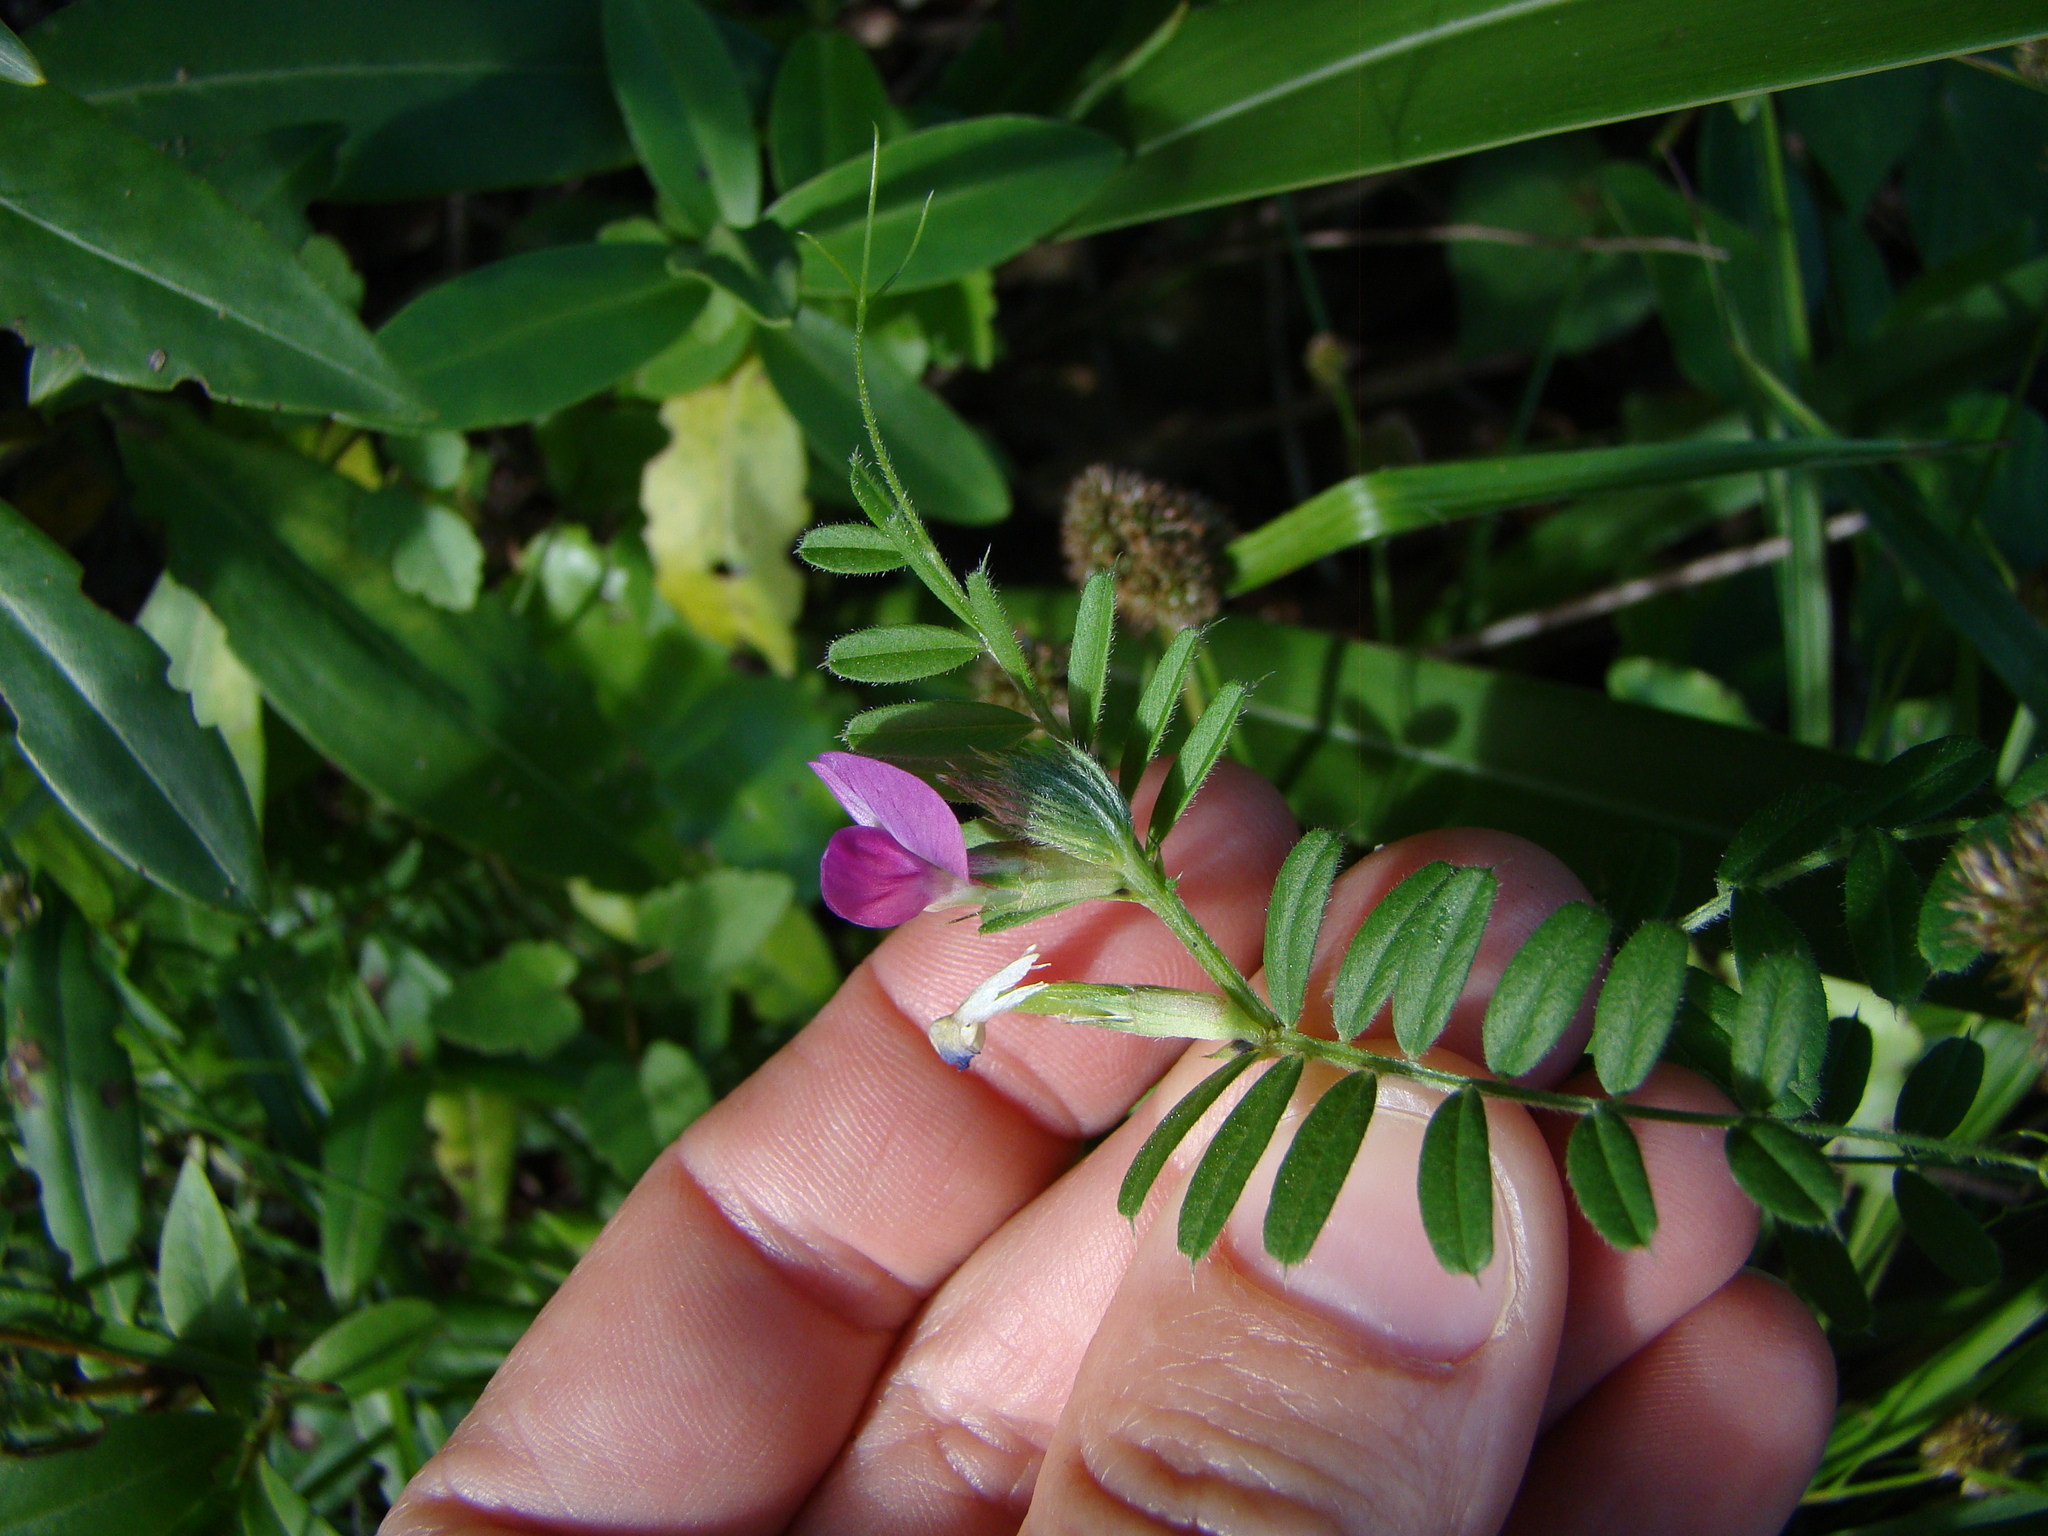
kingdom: Plantae
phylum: Tracheophyta
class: Magnoliopsida
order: Fabales
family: Fabaceae
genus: Vicia
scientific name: Vicia sativa
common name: Garden vetch
